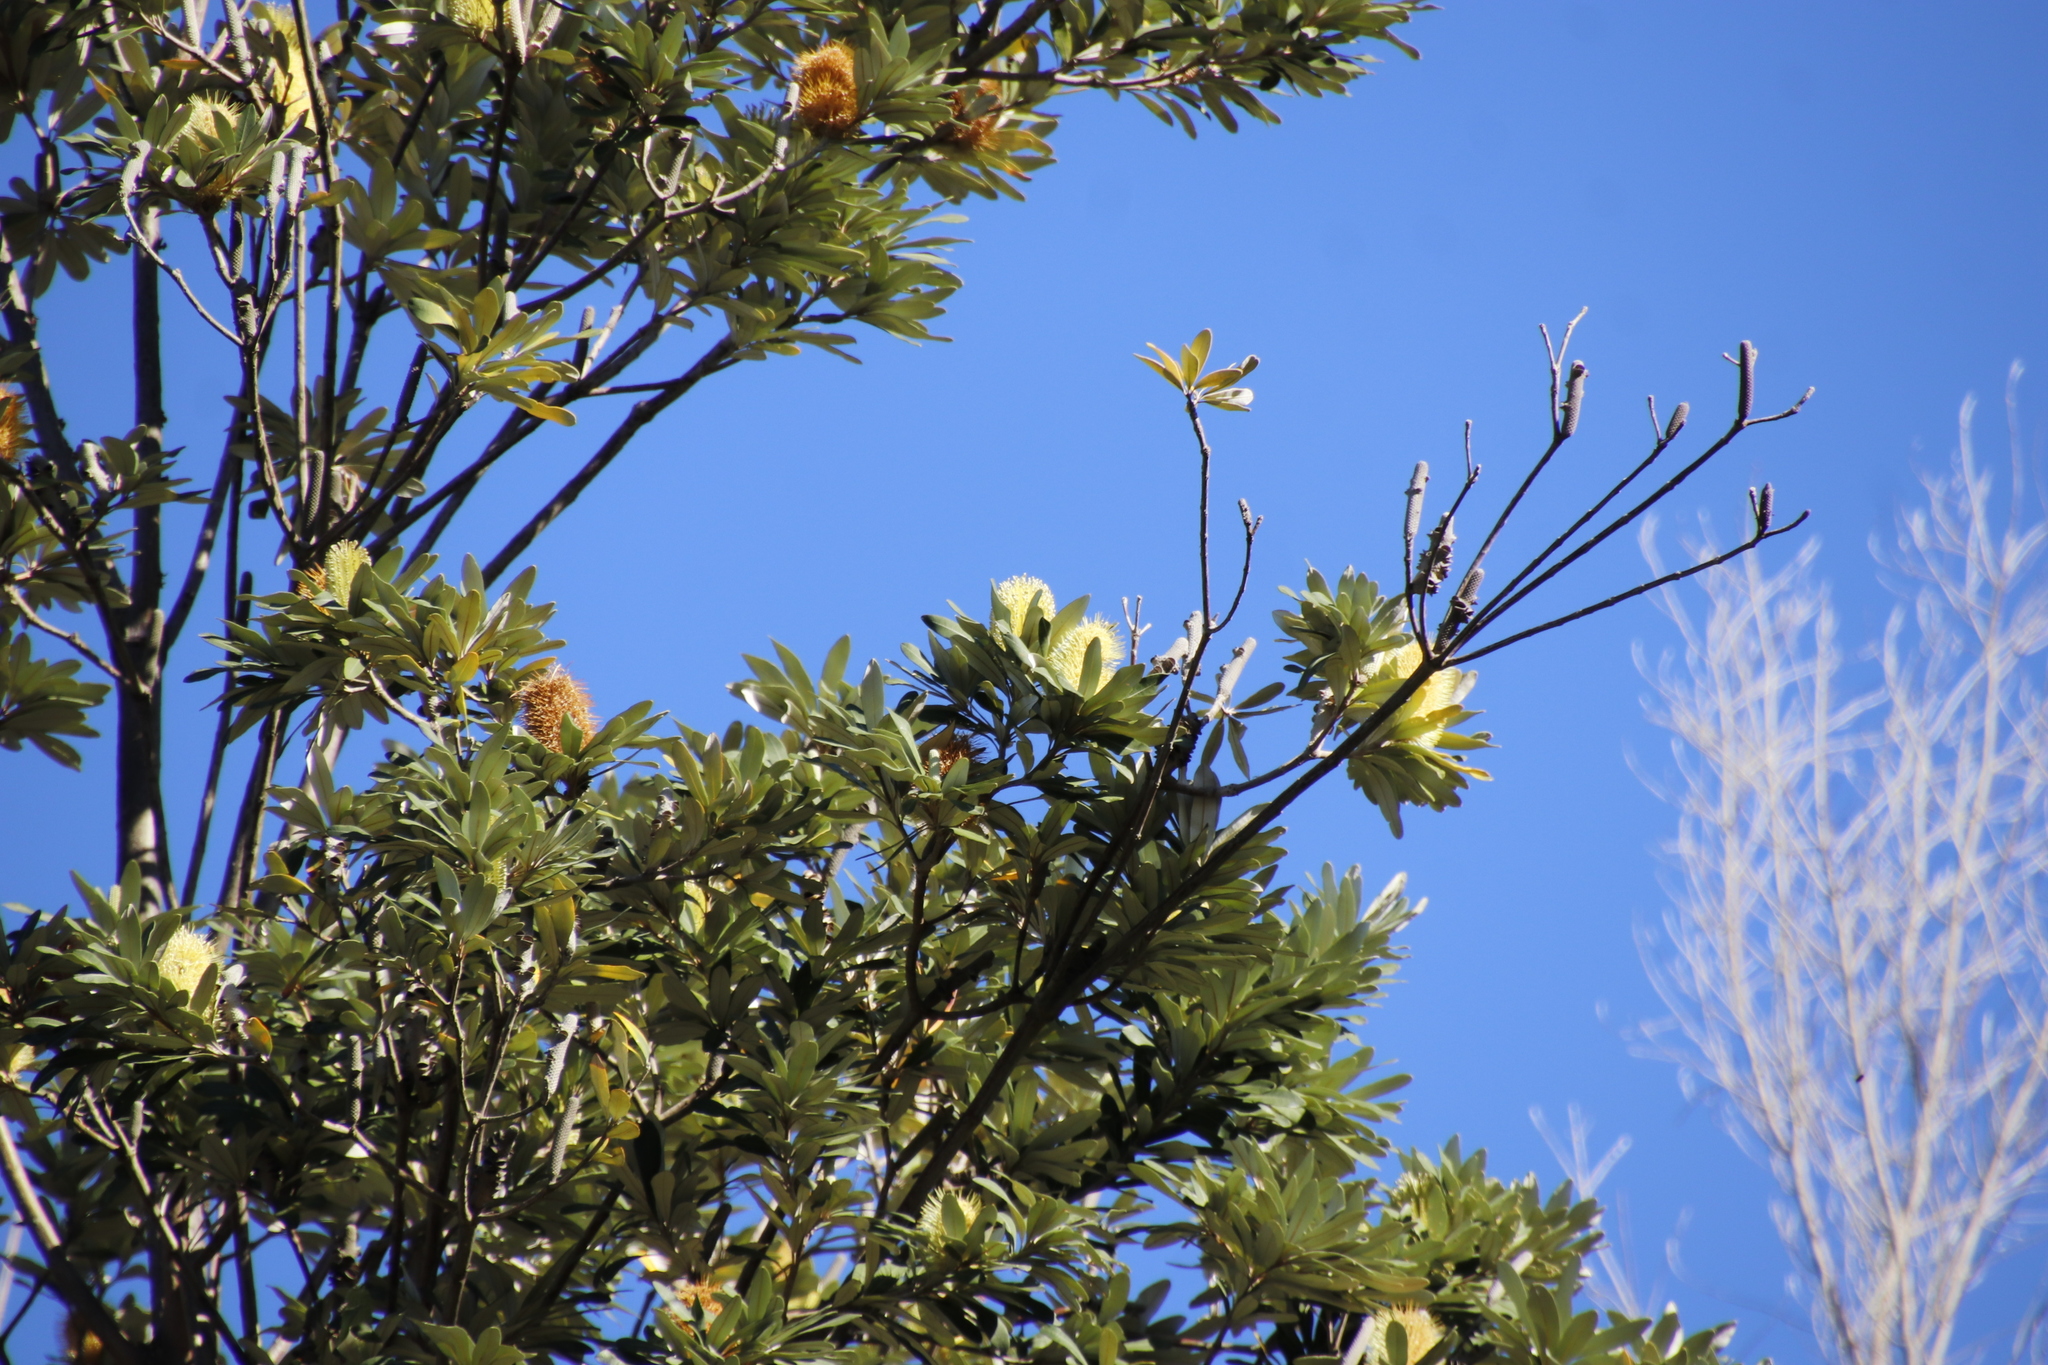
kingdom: Plantae
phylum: Tracheophyta
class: Magnoliopsida
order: Proteales
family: Proteaceae
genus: Banksia
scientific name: Banksia integrifolia
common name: White-honeysuckle
